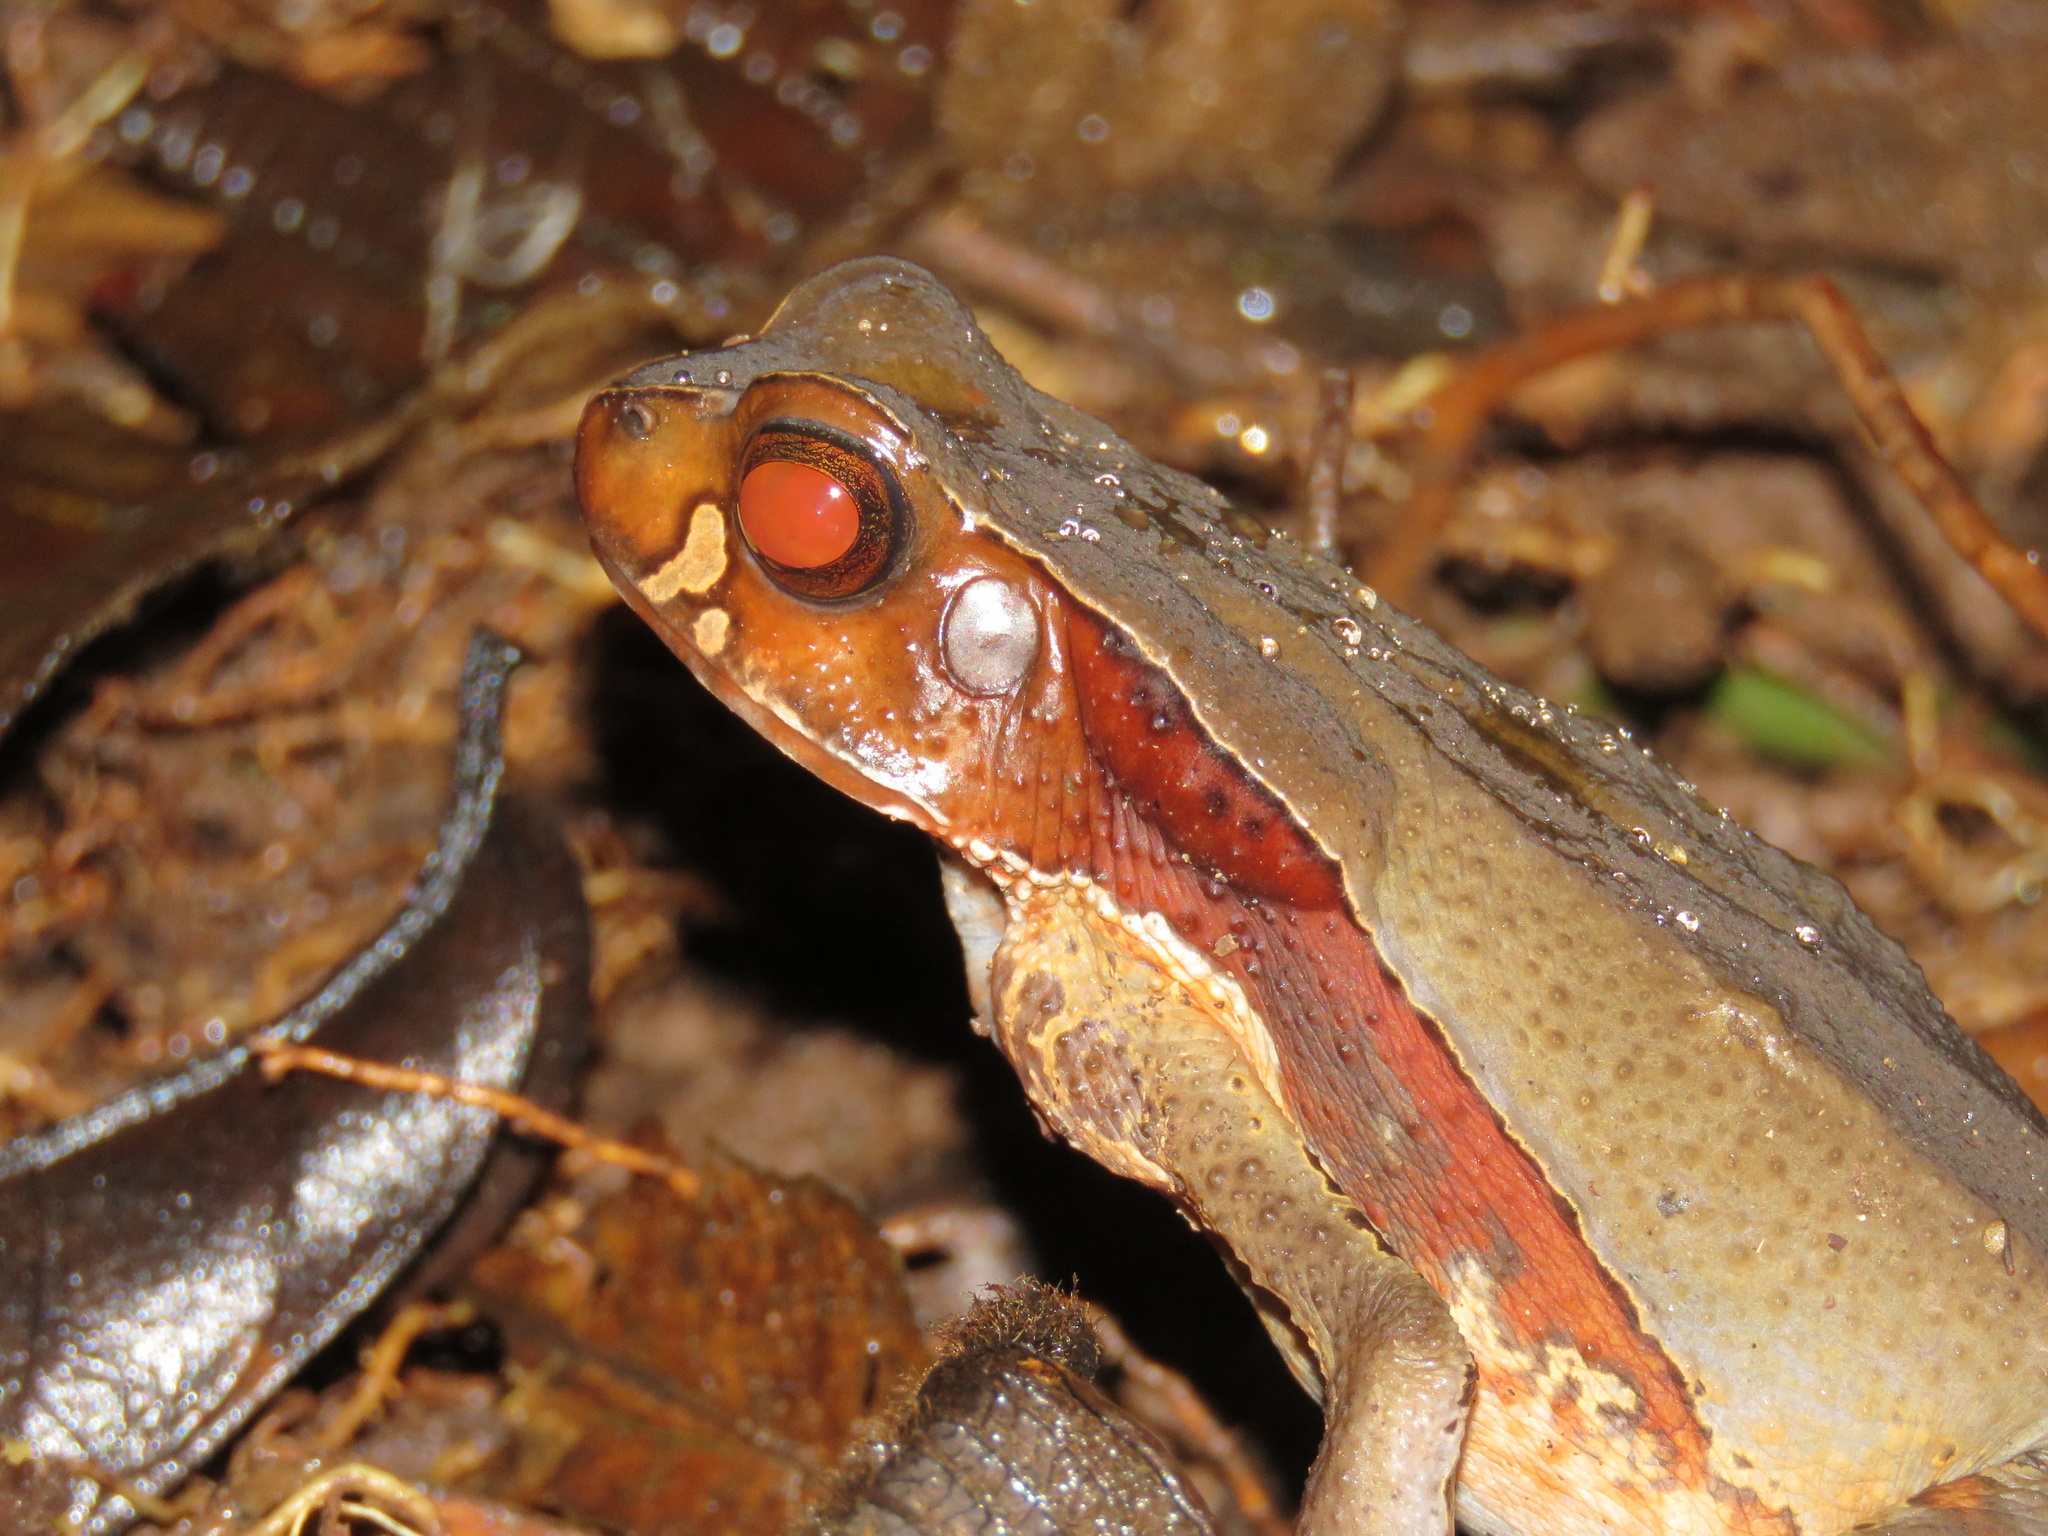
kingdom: Animalia
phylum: Chordata
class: Amphibia
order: Anura
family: Bufonidae
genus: Rhaebo
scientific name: Rhaebo haematiticus
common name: Truando toad
